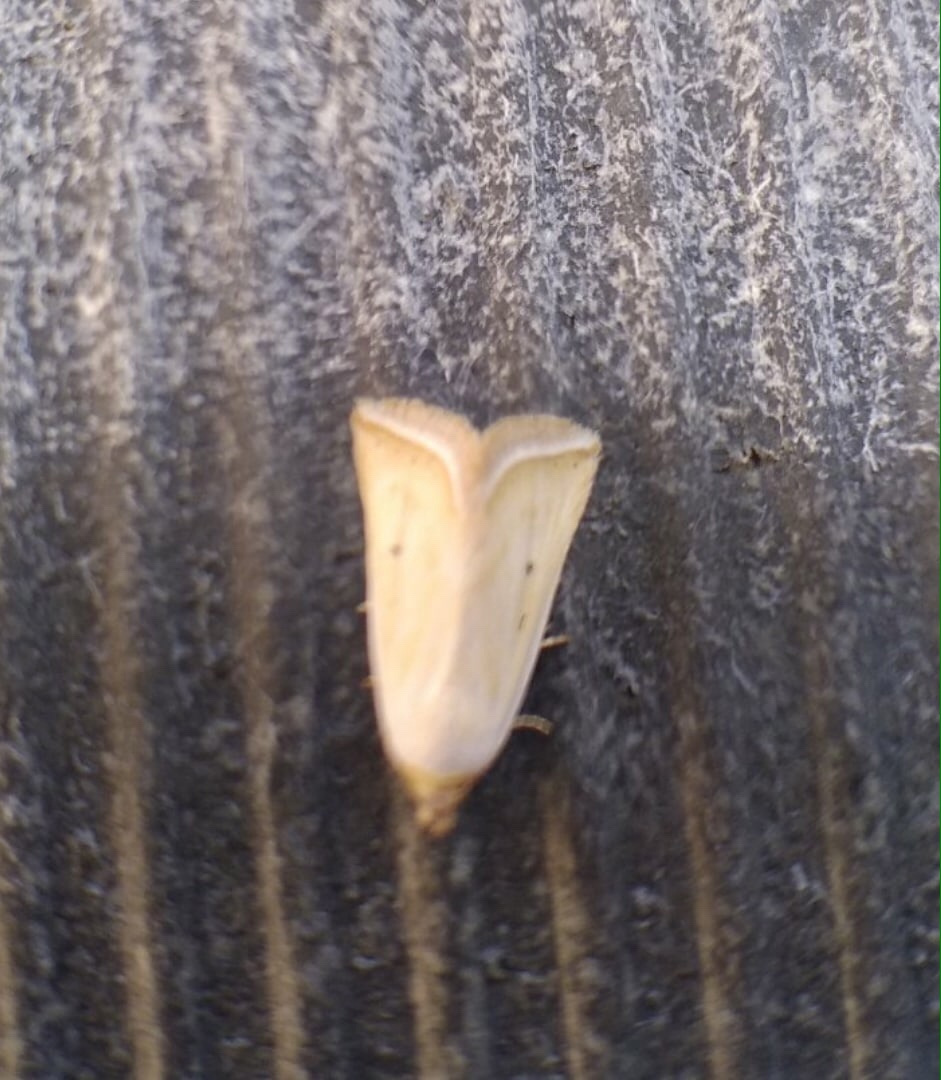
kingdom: Animalia
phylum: Arthropoda
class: Insecta
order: Lepidoptera
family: Noctuidae
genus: Eublemma
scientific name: Eublemma pallidula
